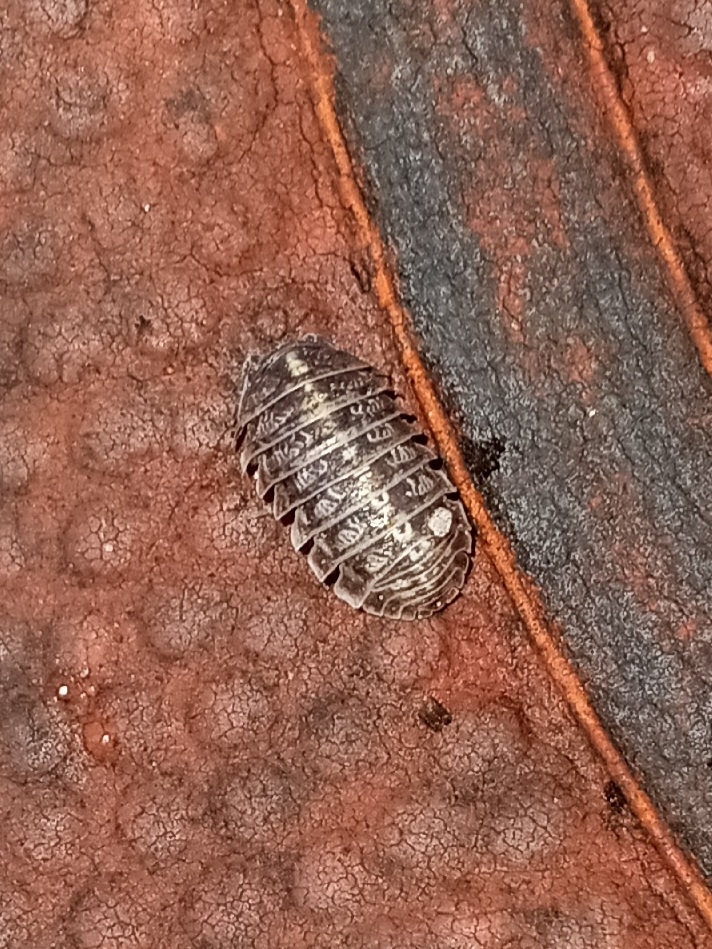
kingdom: Animalia
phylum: Arthropoda
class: Malacostraca
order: Isopoda
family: Armadillidiidae
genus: Armadillidium
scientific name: Armadillidium vulgare
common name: Common pill woodlouse
